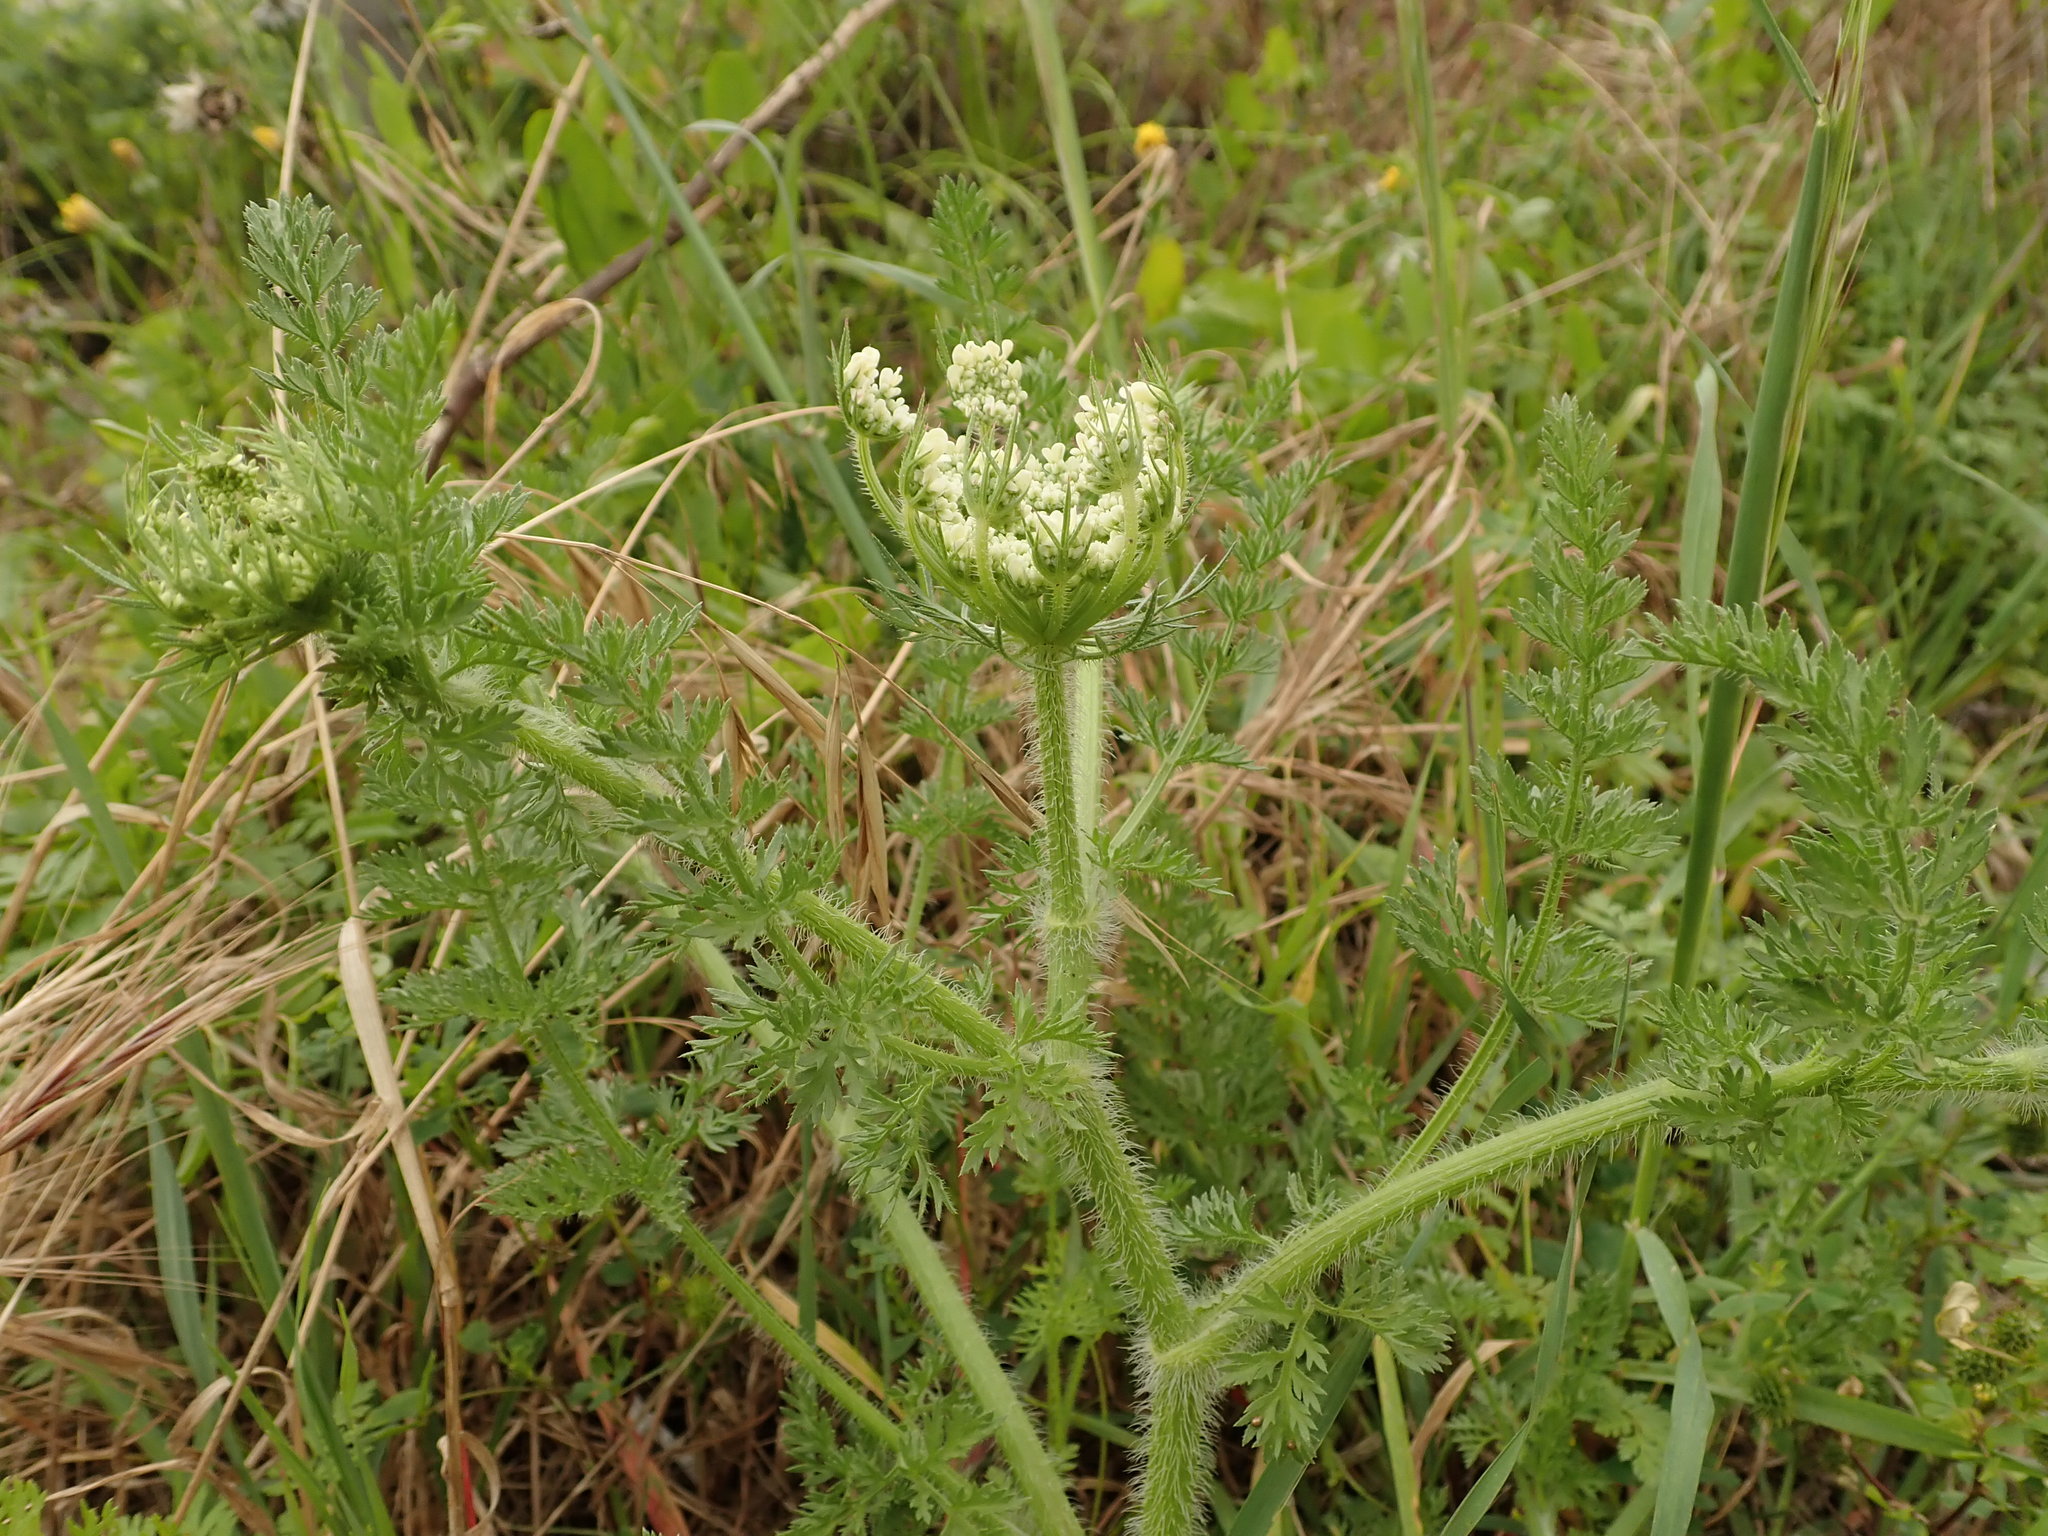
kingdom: Plantae
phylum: Tracheophyta
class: Magnoliopsida
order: Apiales
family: Apiaceae
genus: Daucus
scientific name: Daucus carota
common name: Wild carrot
